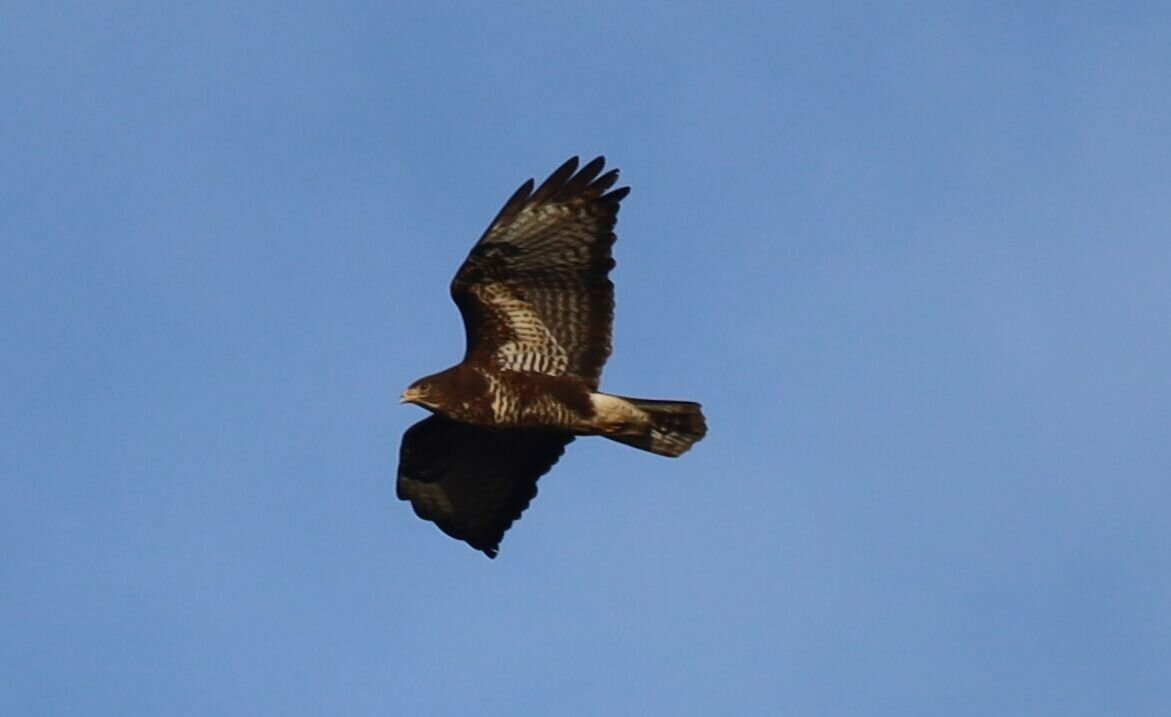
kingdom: Animalia
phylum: Chordata
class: Aves
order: Accipitriformes
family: Accipitridae
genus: Buteo
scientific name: Buteo buteo
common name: Common buzzard
